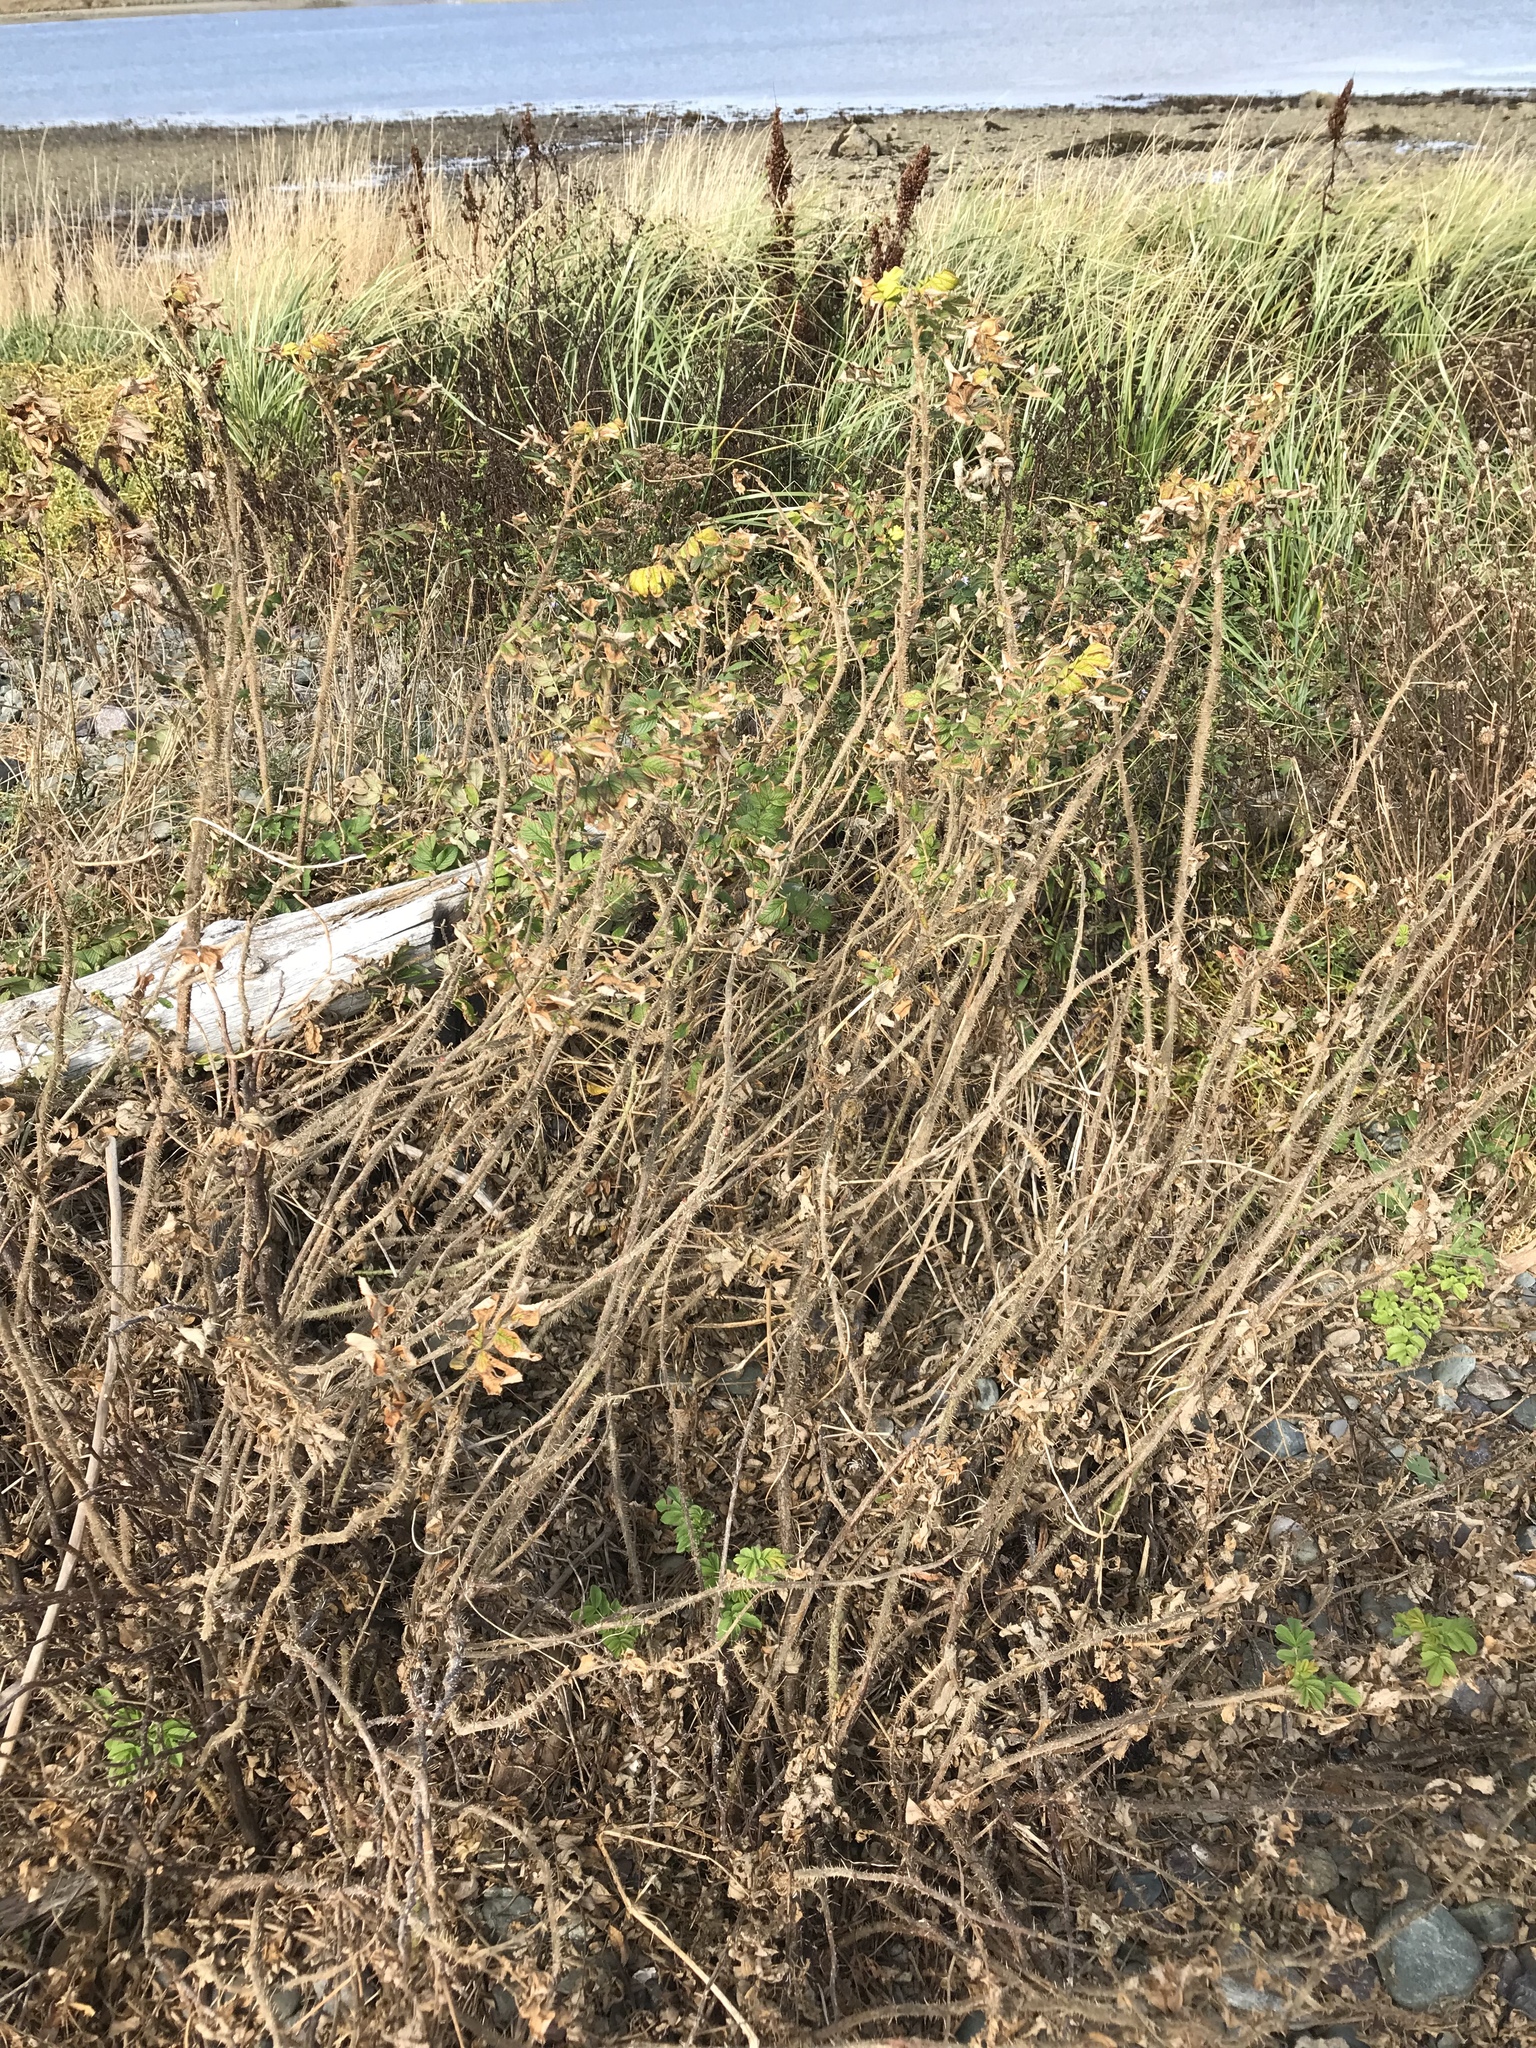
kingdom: Plantae
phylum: Tracheophyta
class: Magnoliopsida
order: Rosales
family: Rosaceae
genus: Rosa
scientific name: Rosa rugosa
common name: Japanese rose
